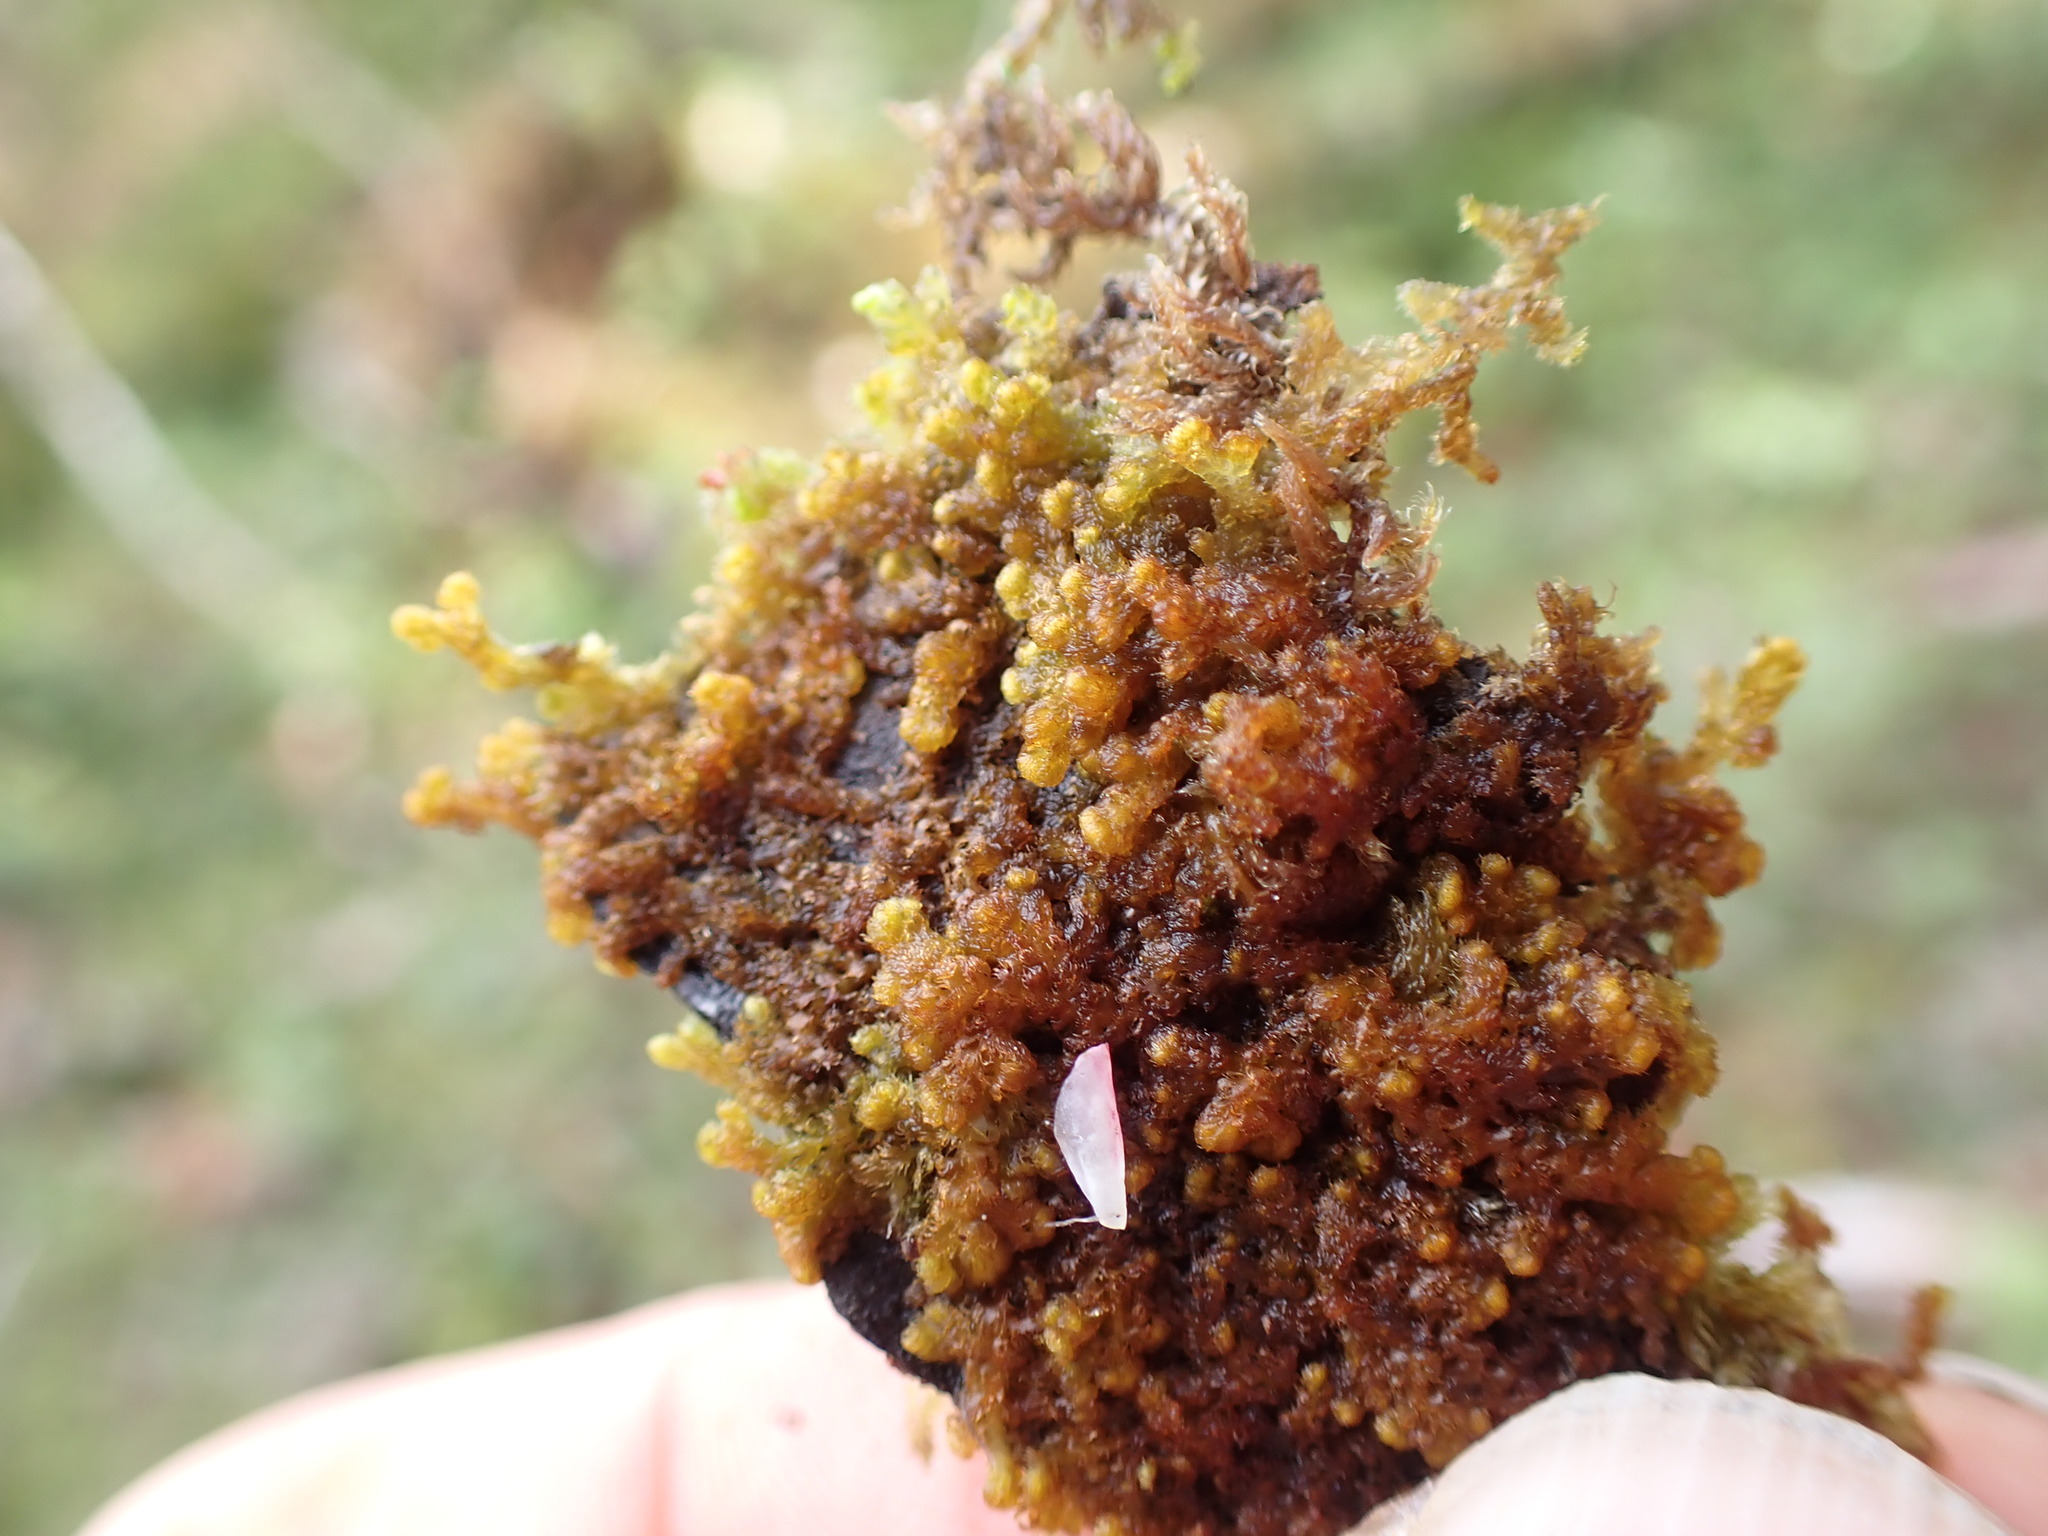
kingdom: Plantae
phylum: Marchantiophyta
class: Jungermanniopsida
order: Ptilidiales
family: Ptilidiaceae
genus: Ptilidium
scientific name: Ptilidium pulcherrimum
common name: Tree fringewort
